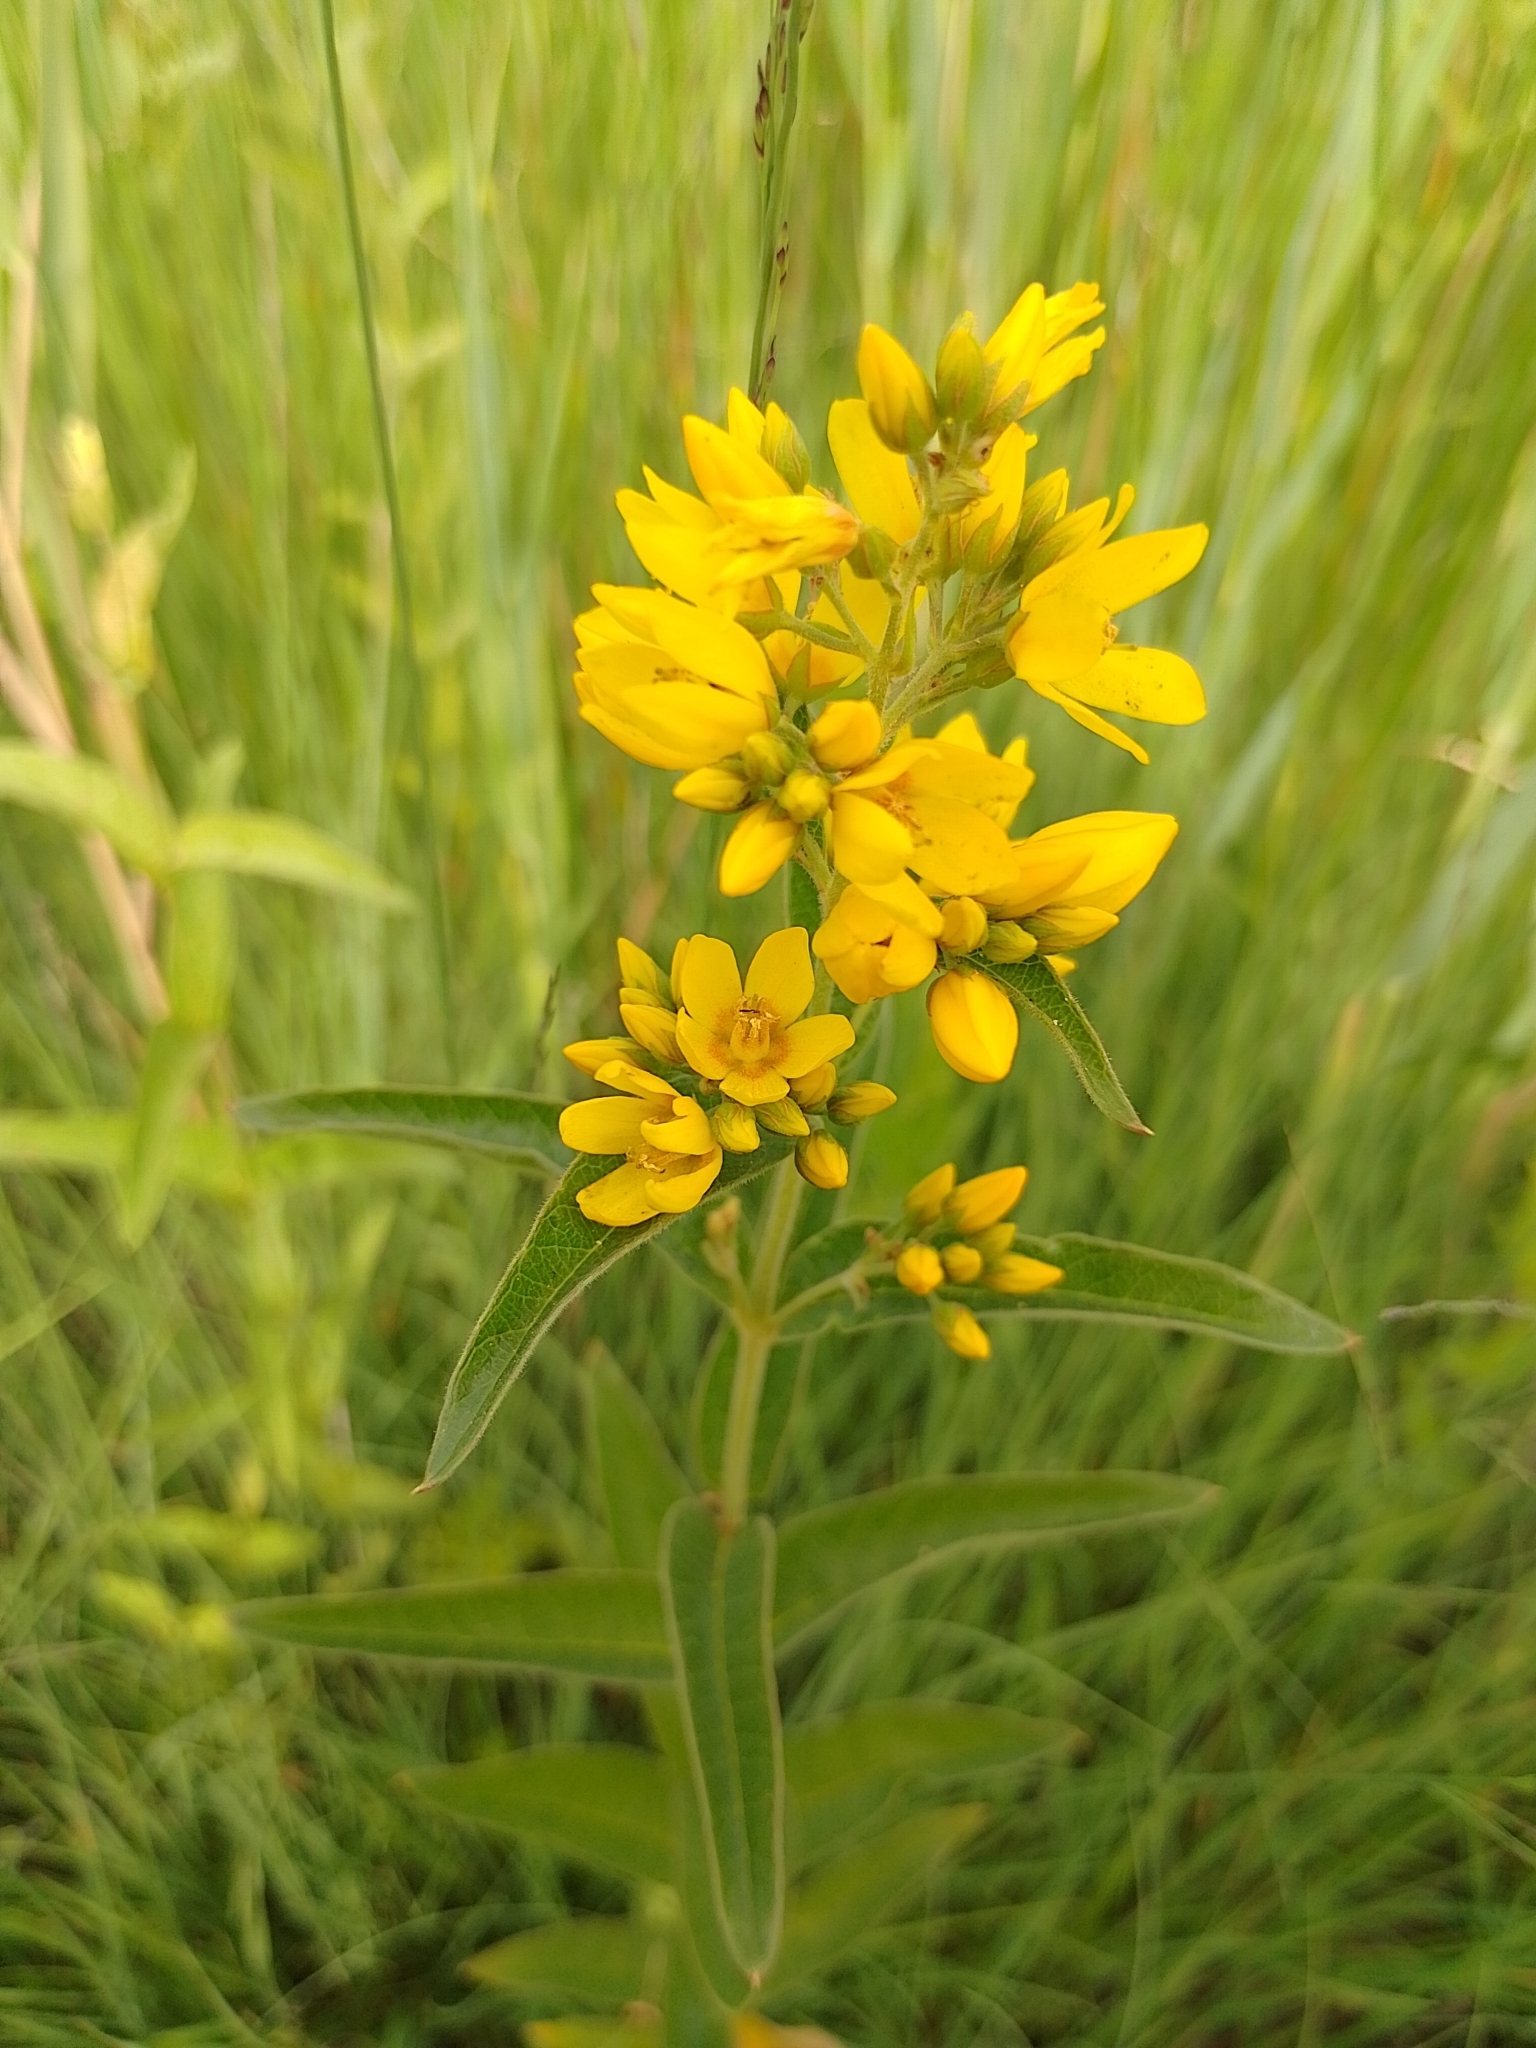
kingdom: Plantae
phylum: Tracheophyta
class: Magnoliopsida
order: Ericales
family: Primulaceae
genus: Lysimachia
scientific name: Lysimachia vulgaris
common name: Yellow loosestrife
